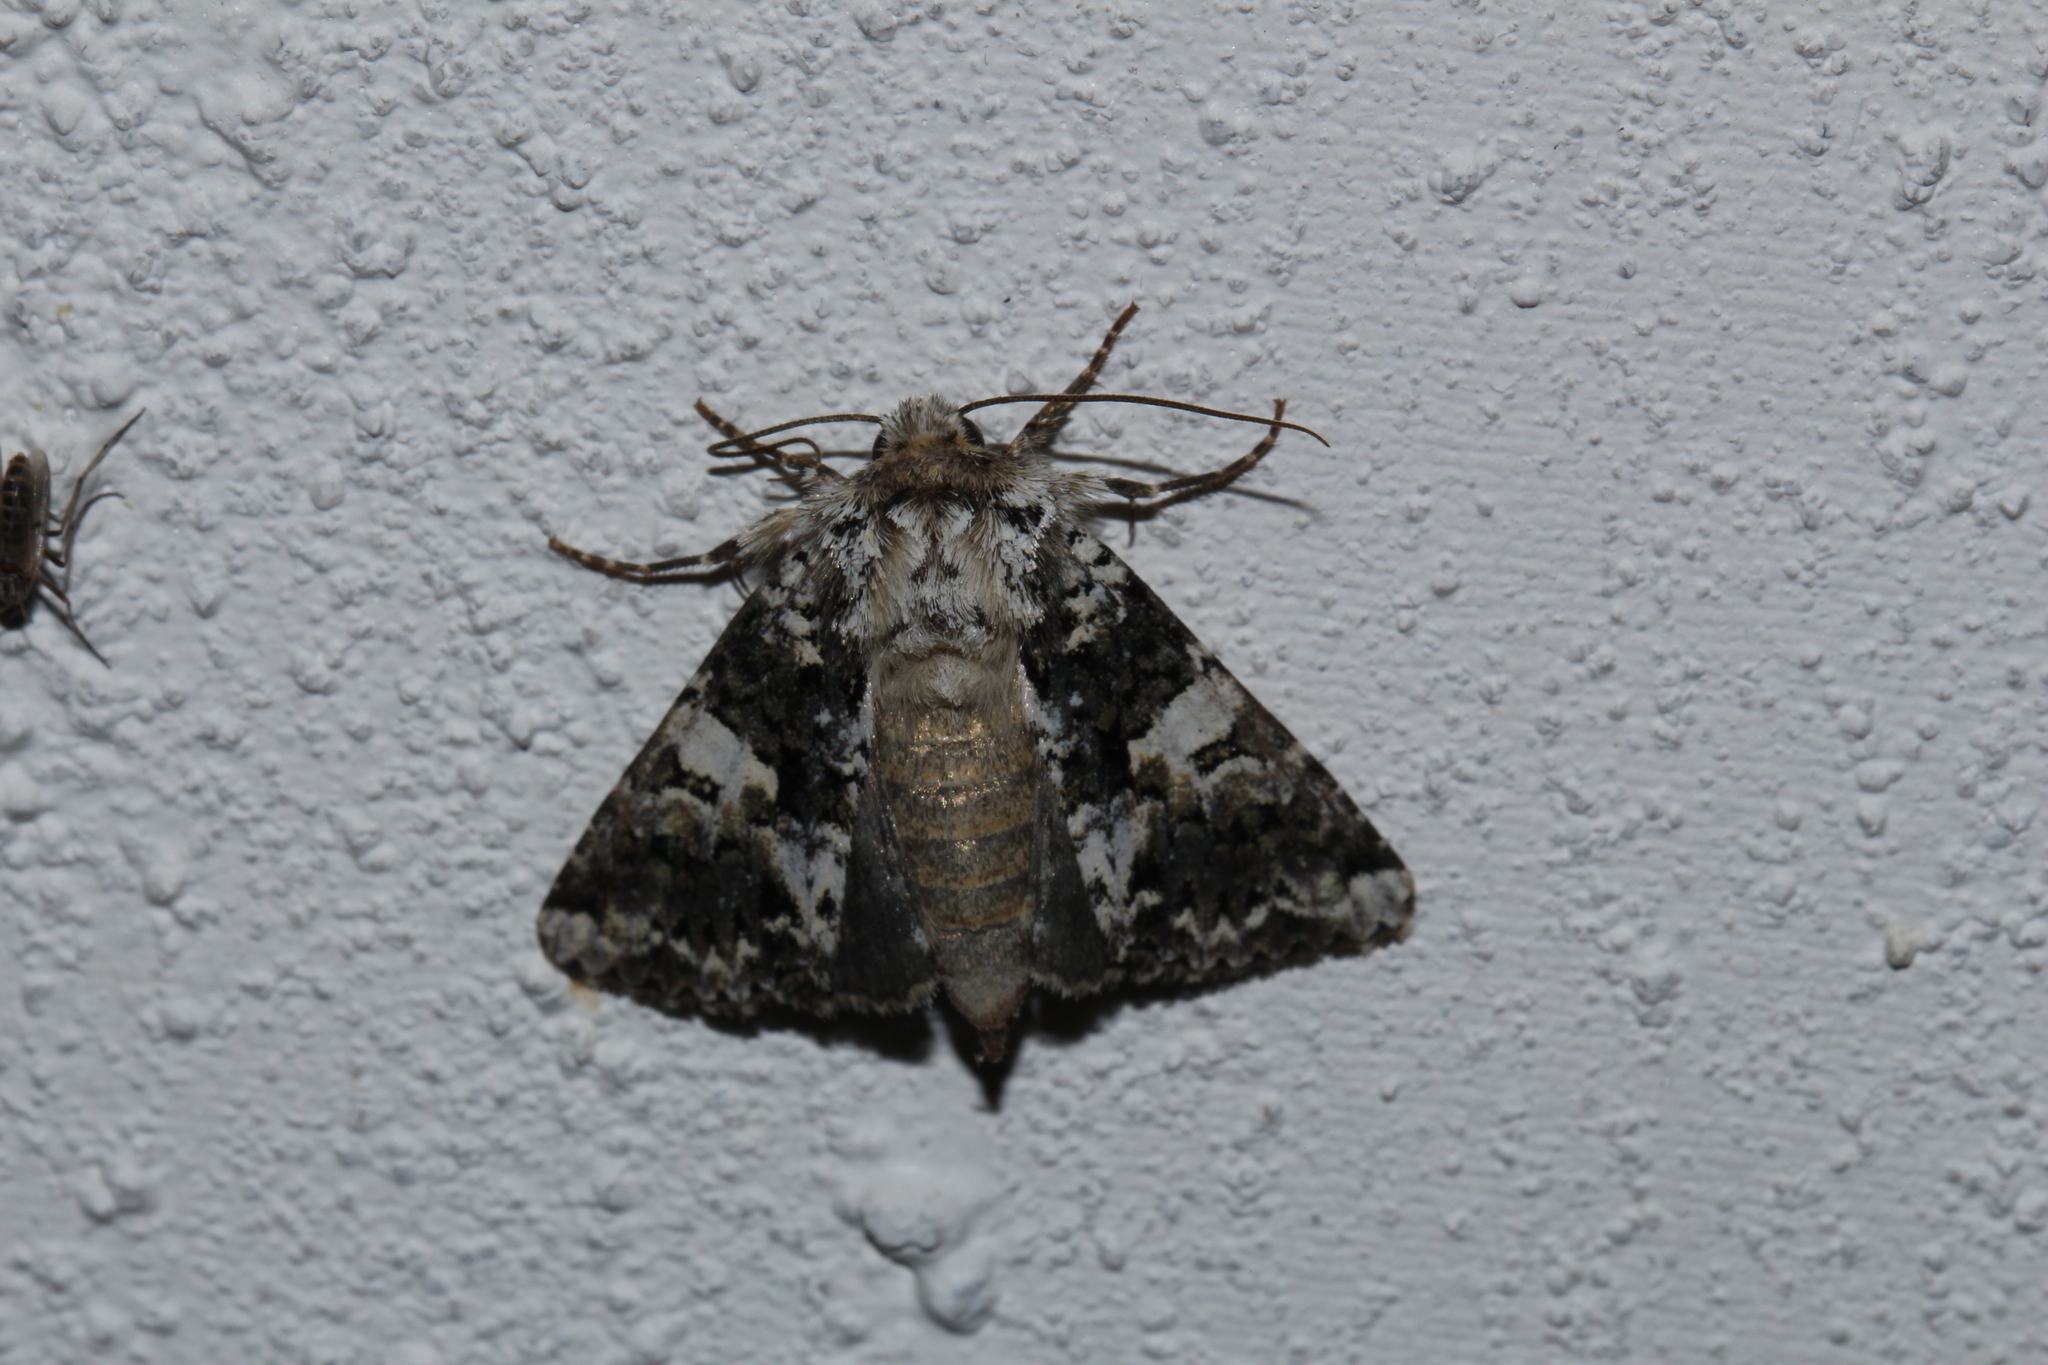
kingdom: Animalia
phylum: Arthropoda
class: Insecta
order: Lepidoptera
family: Noctuidae
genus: Hadena
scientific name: Hadena confusa
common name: Marbled coronet
